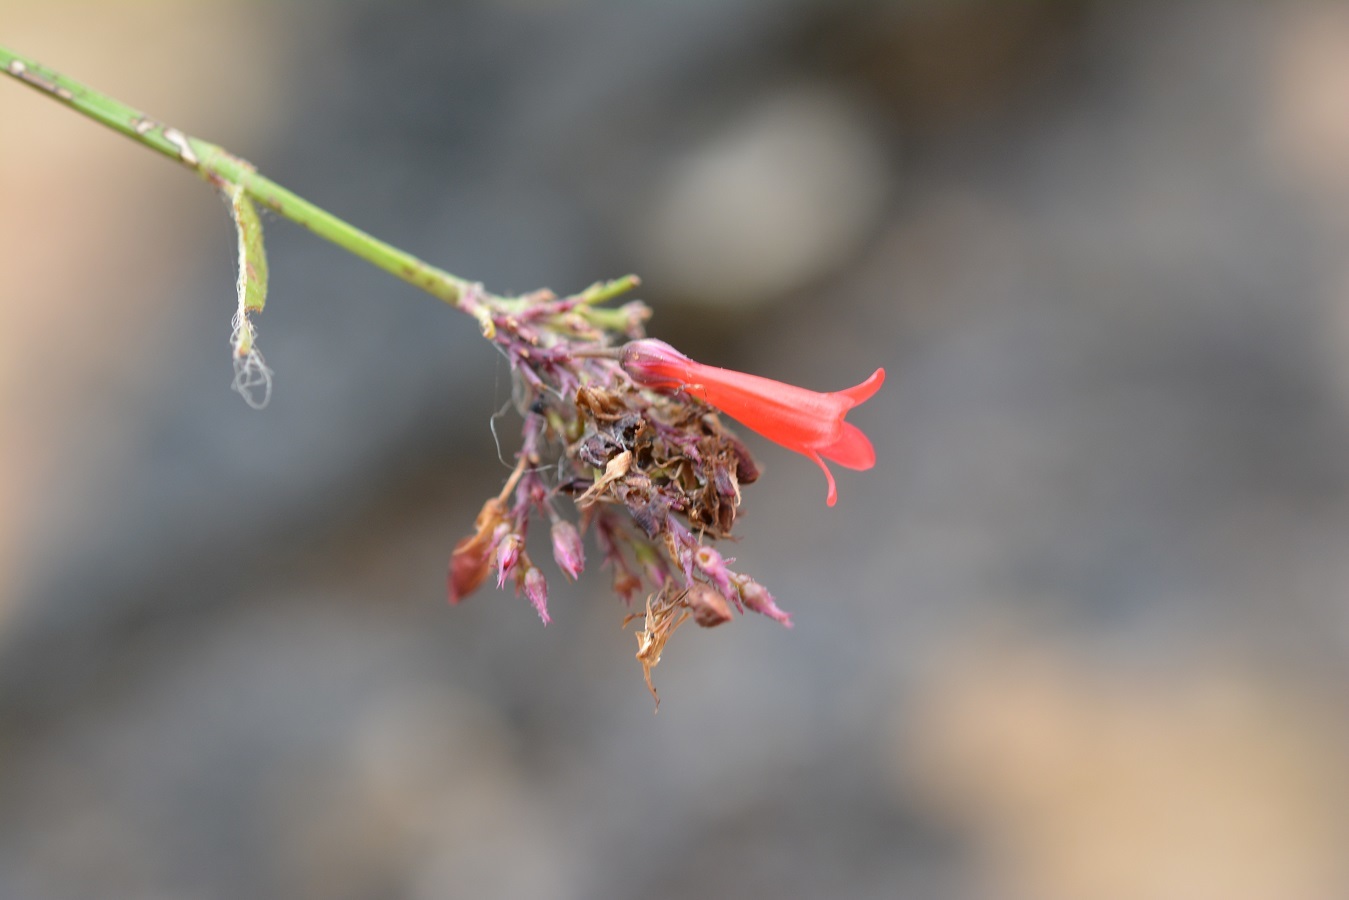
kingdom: Plantae
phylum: Tracheophyta
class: Magnoliopsida
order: Lamiales
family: Plantaginaceae
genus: Russelia
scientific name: Russelia sarmentosa
